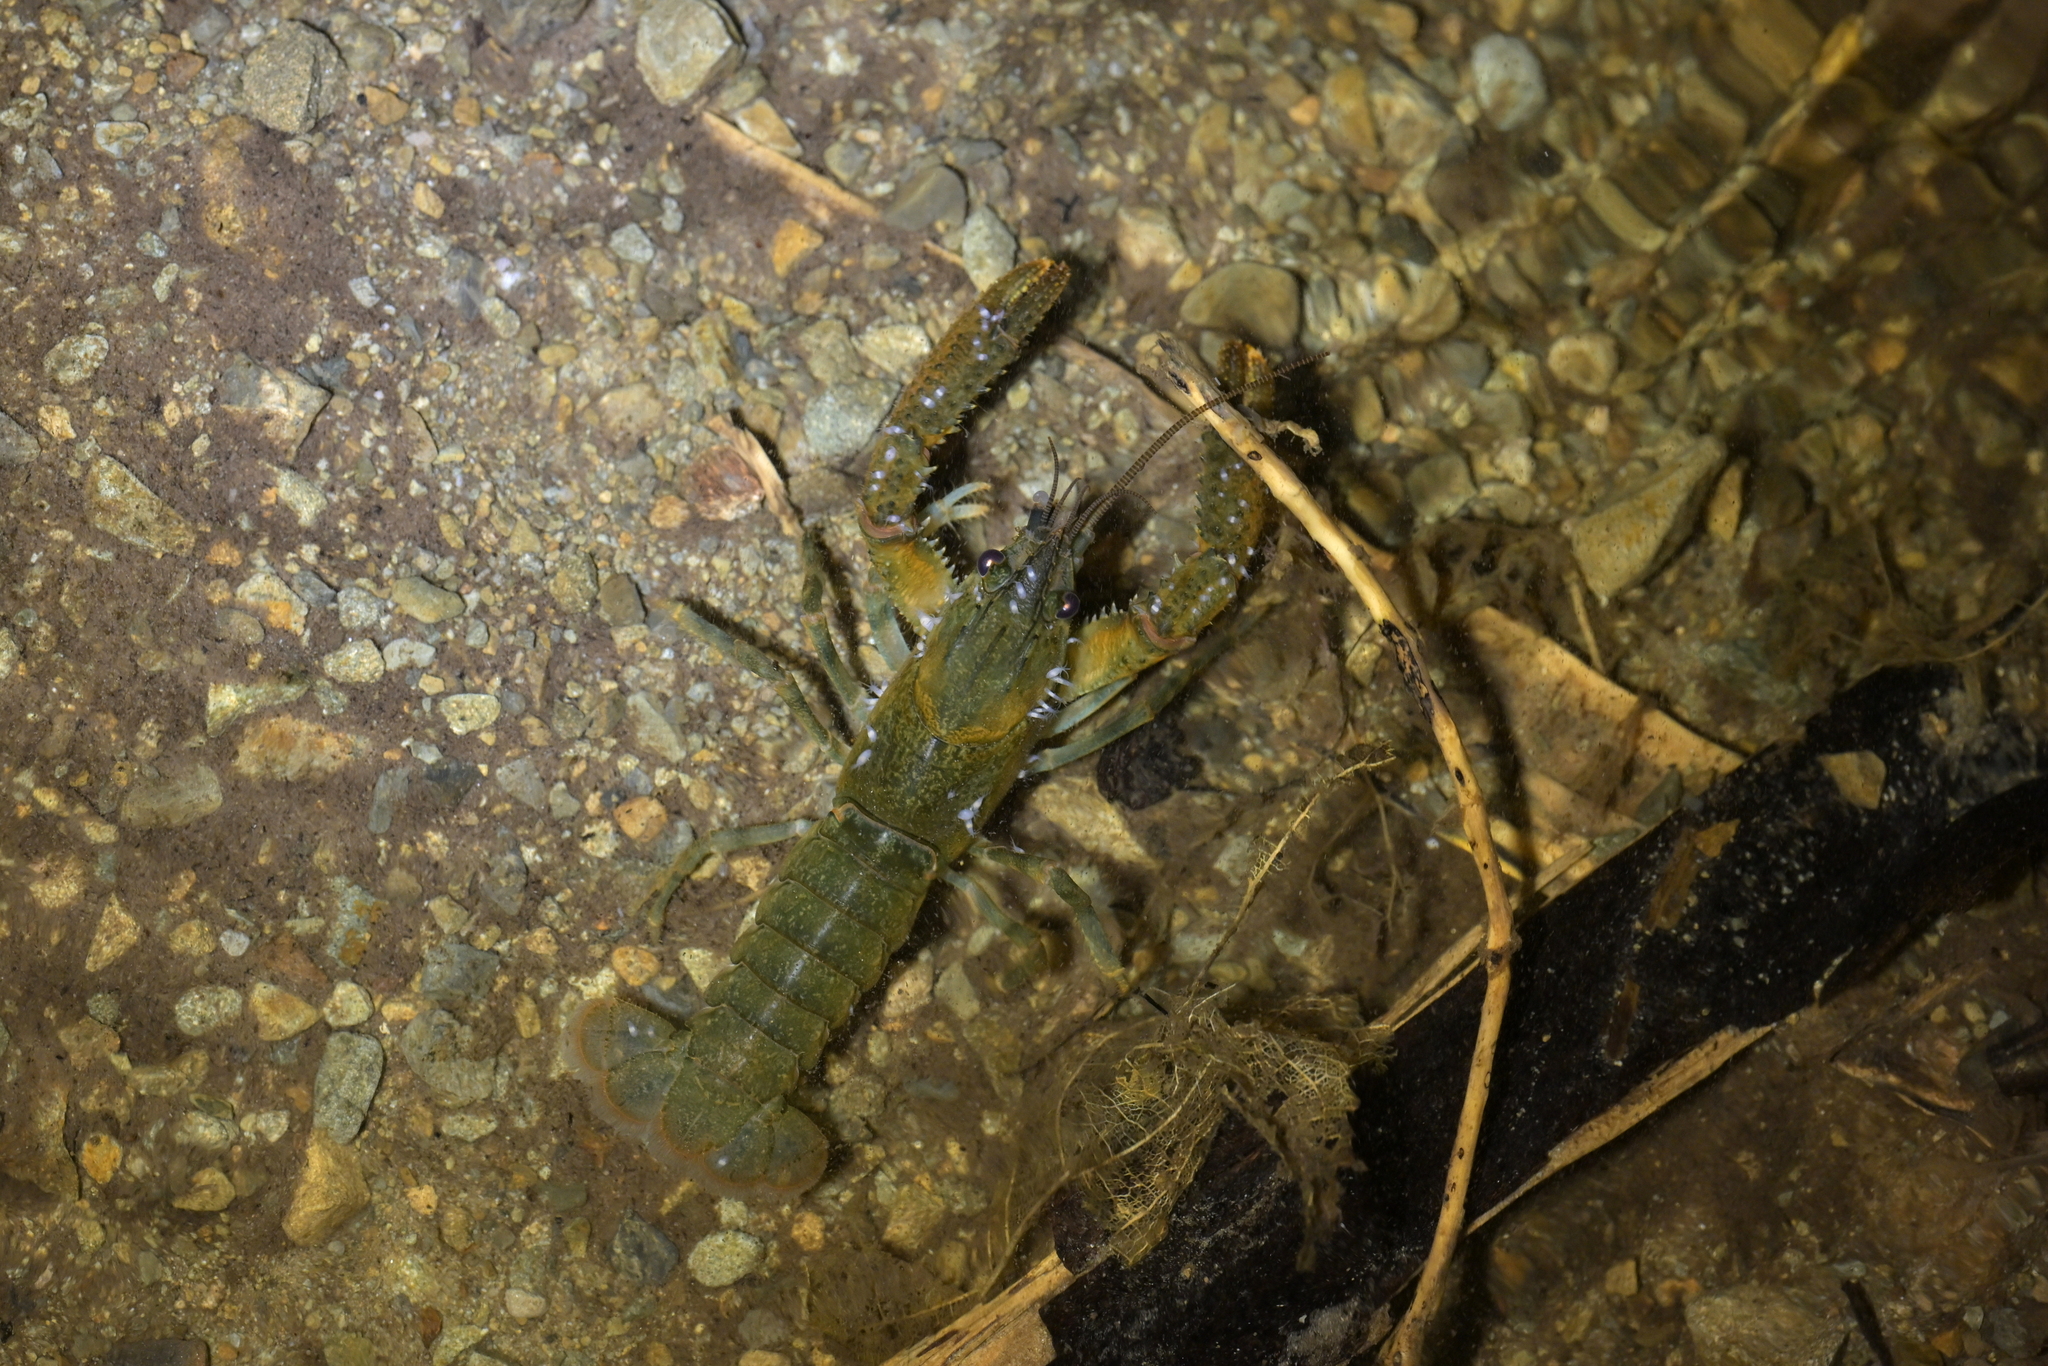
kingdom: Animalia
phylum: Arthropoda
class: Malacostraca
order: Decapoda
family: Parastacidae
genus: Paranephrops
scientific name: Paranephrops planifrons
